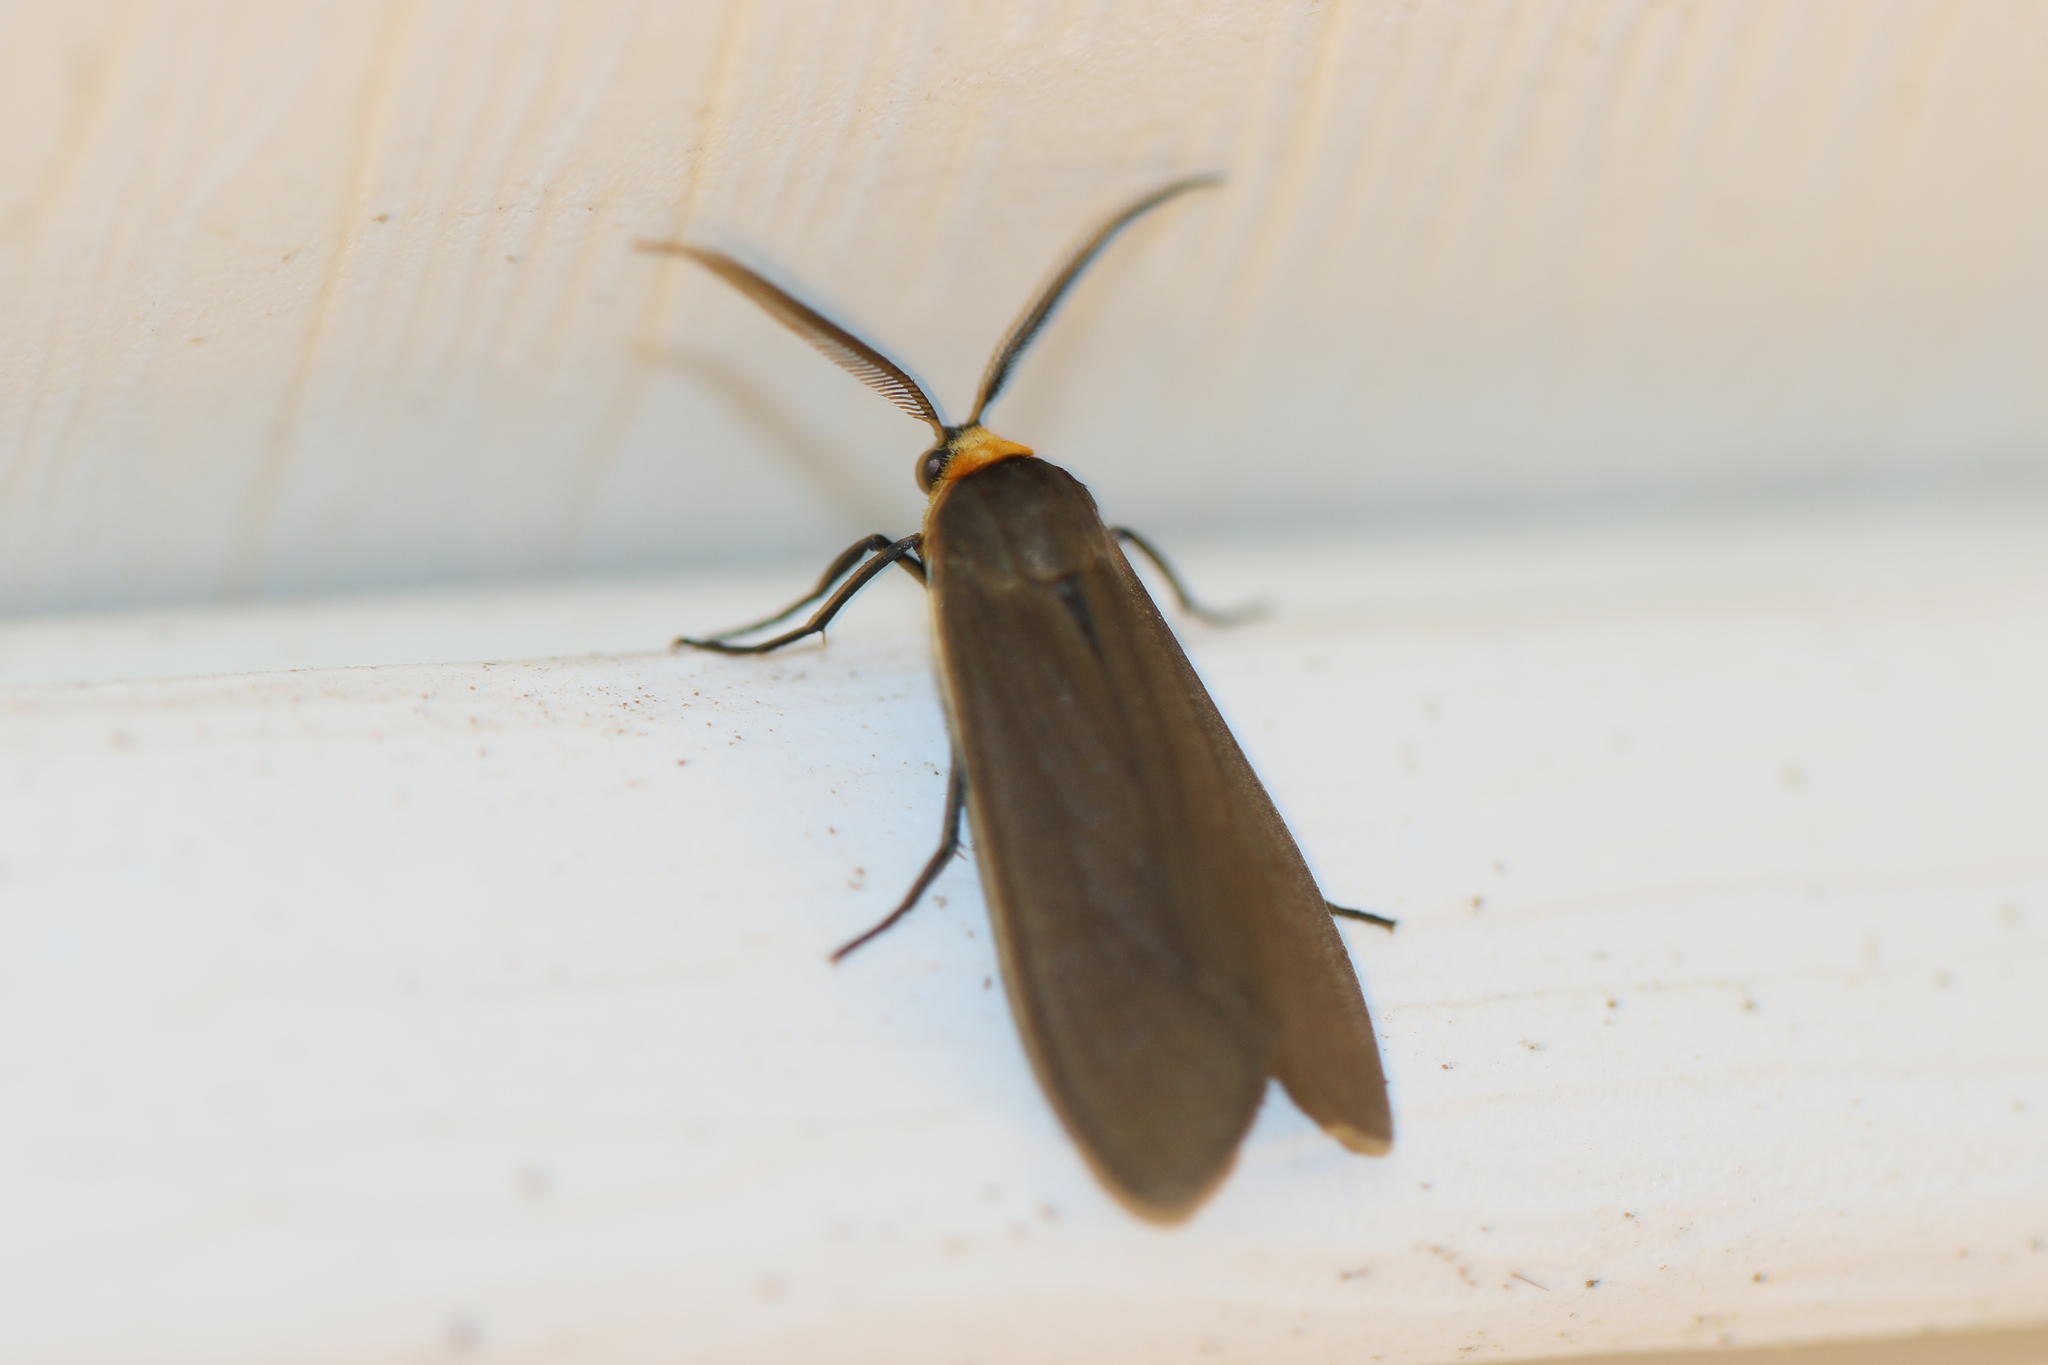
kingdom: Animalia
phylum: Arthropoda
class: Insecta
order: Lepidoptera
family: Erebidae
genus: Cisseps
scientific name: Cisseps fulvicollis
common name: Yellow-collared scape moth
